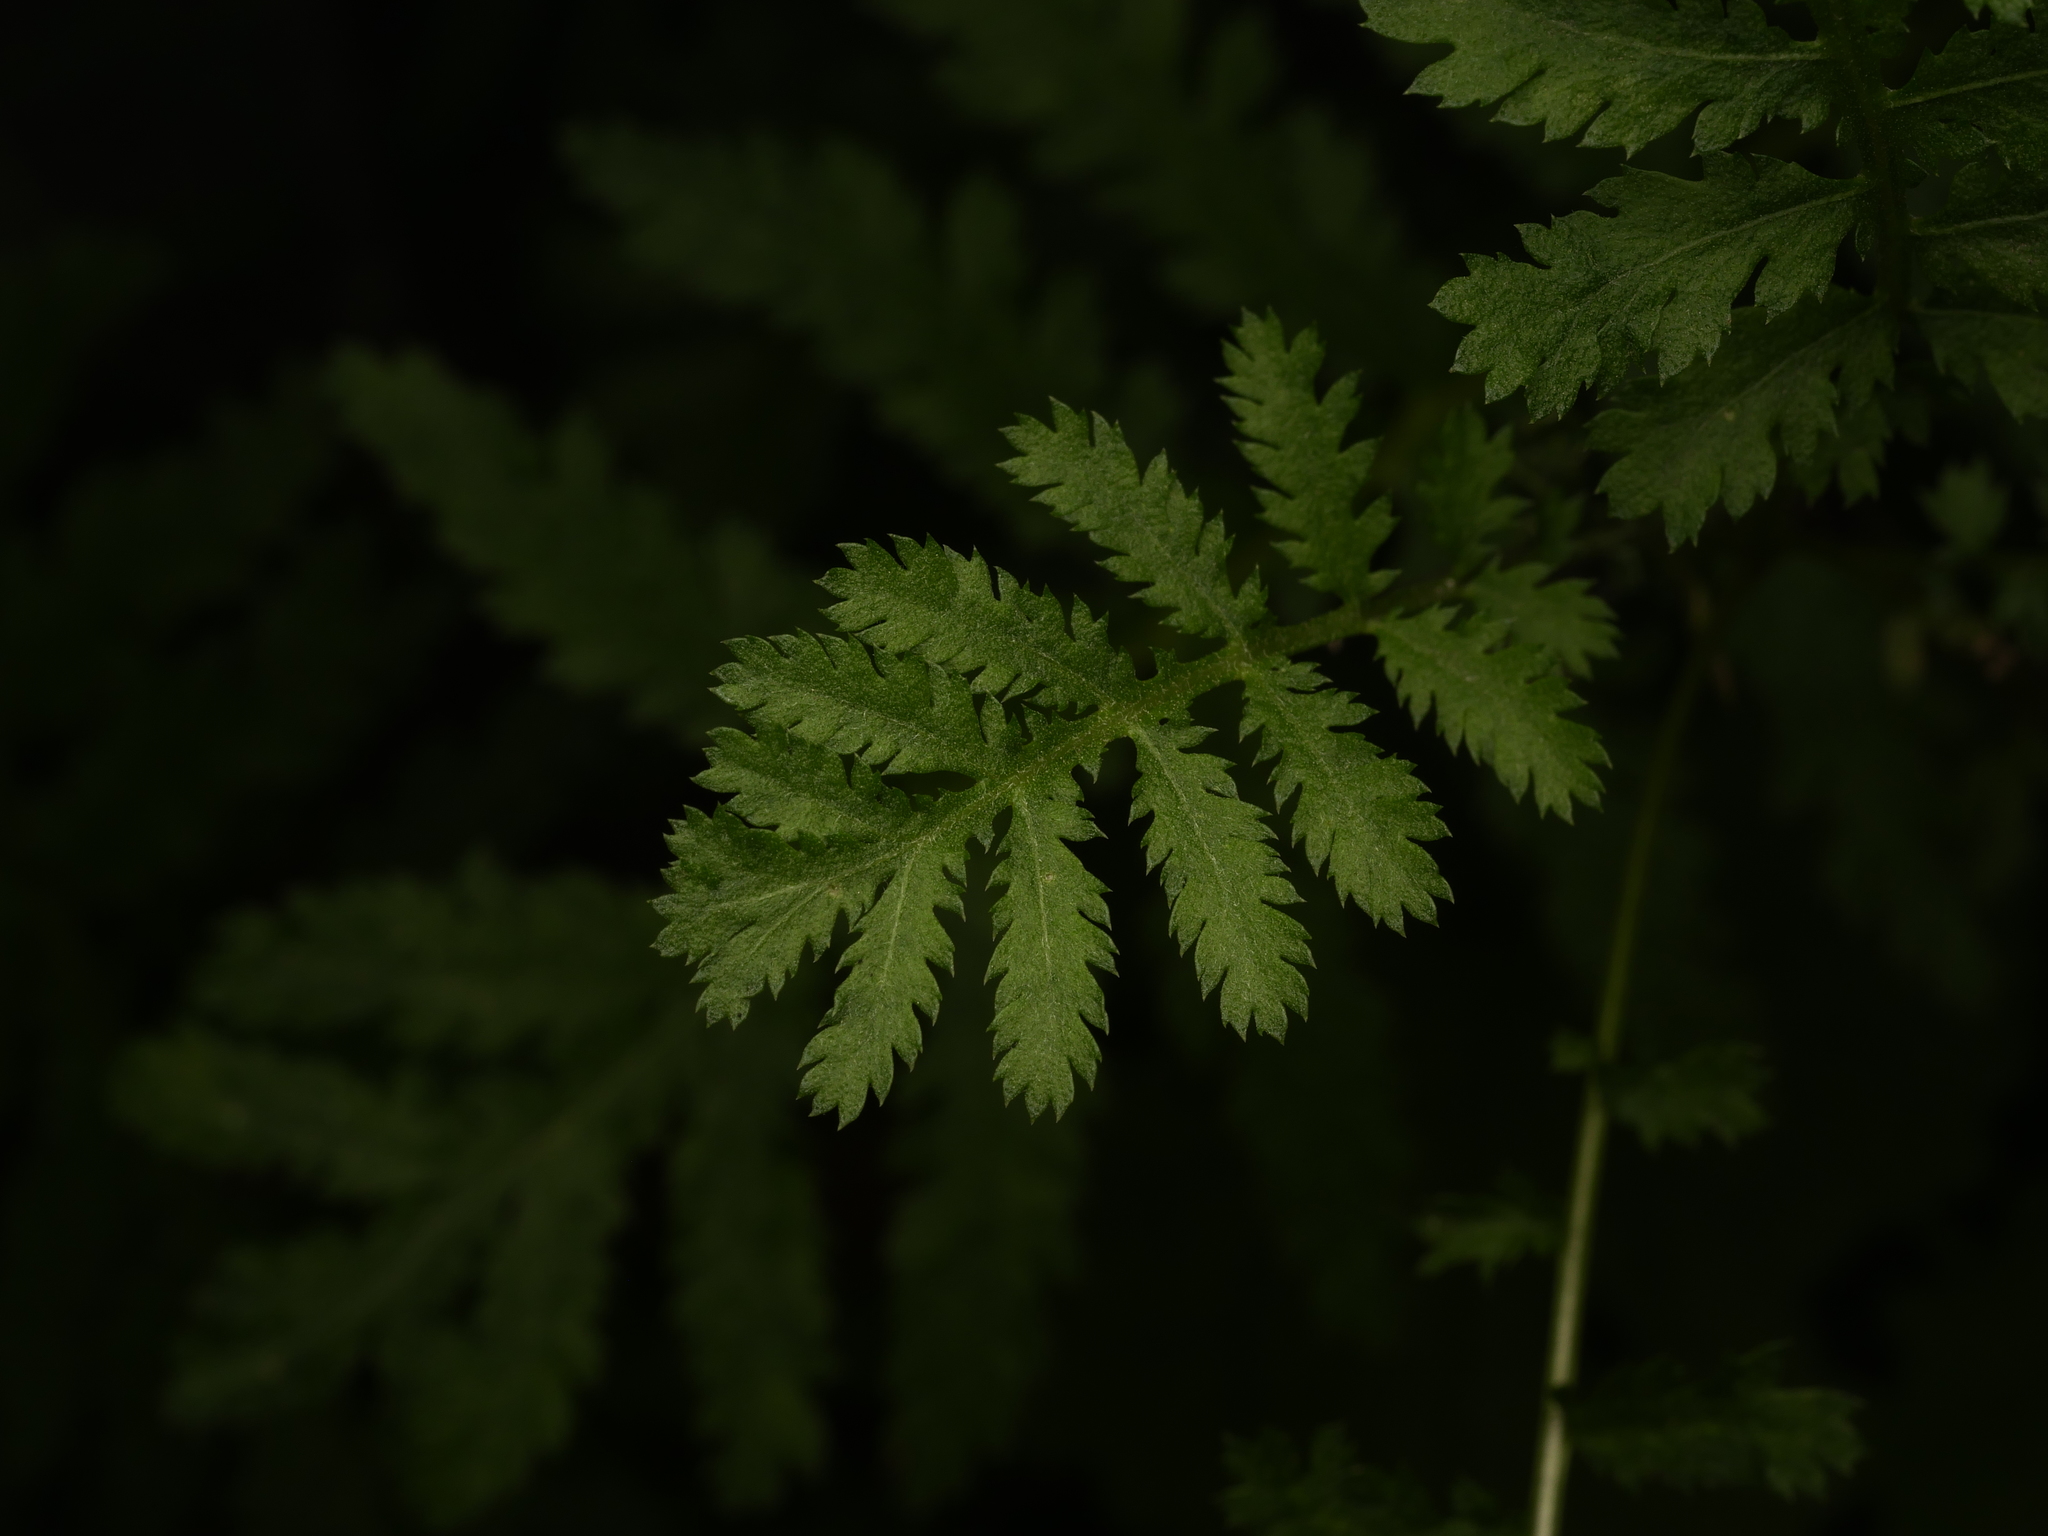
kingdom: Plantae
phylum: Tracheophyta
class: Magnoliopsida
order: Asterales
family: Asteraceae
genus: Tanacetum
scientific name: Tanacetum vulgare
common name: Common tansy
